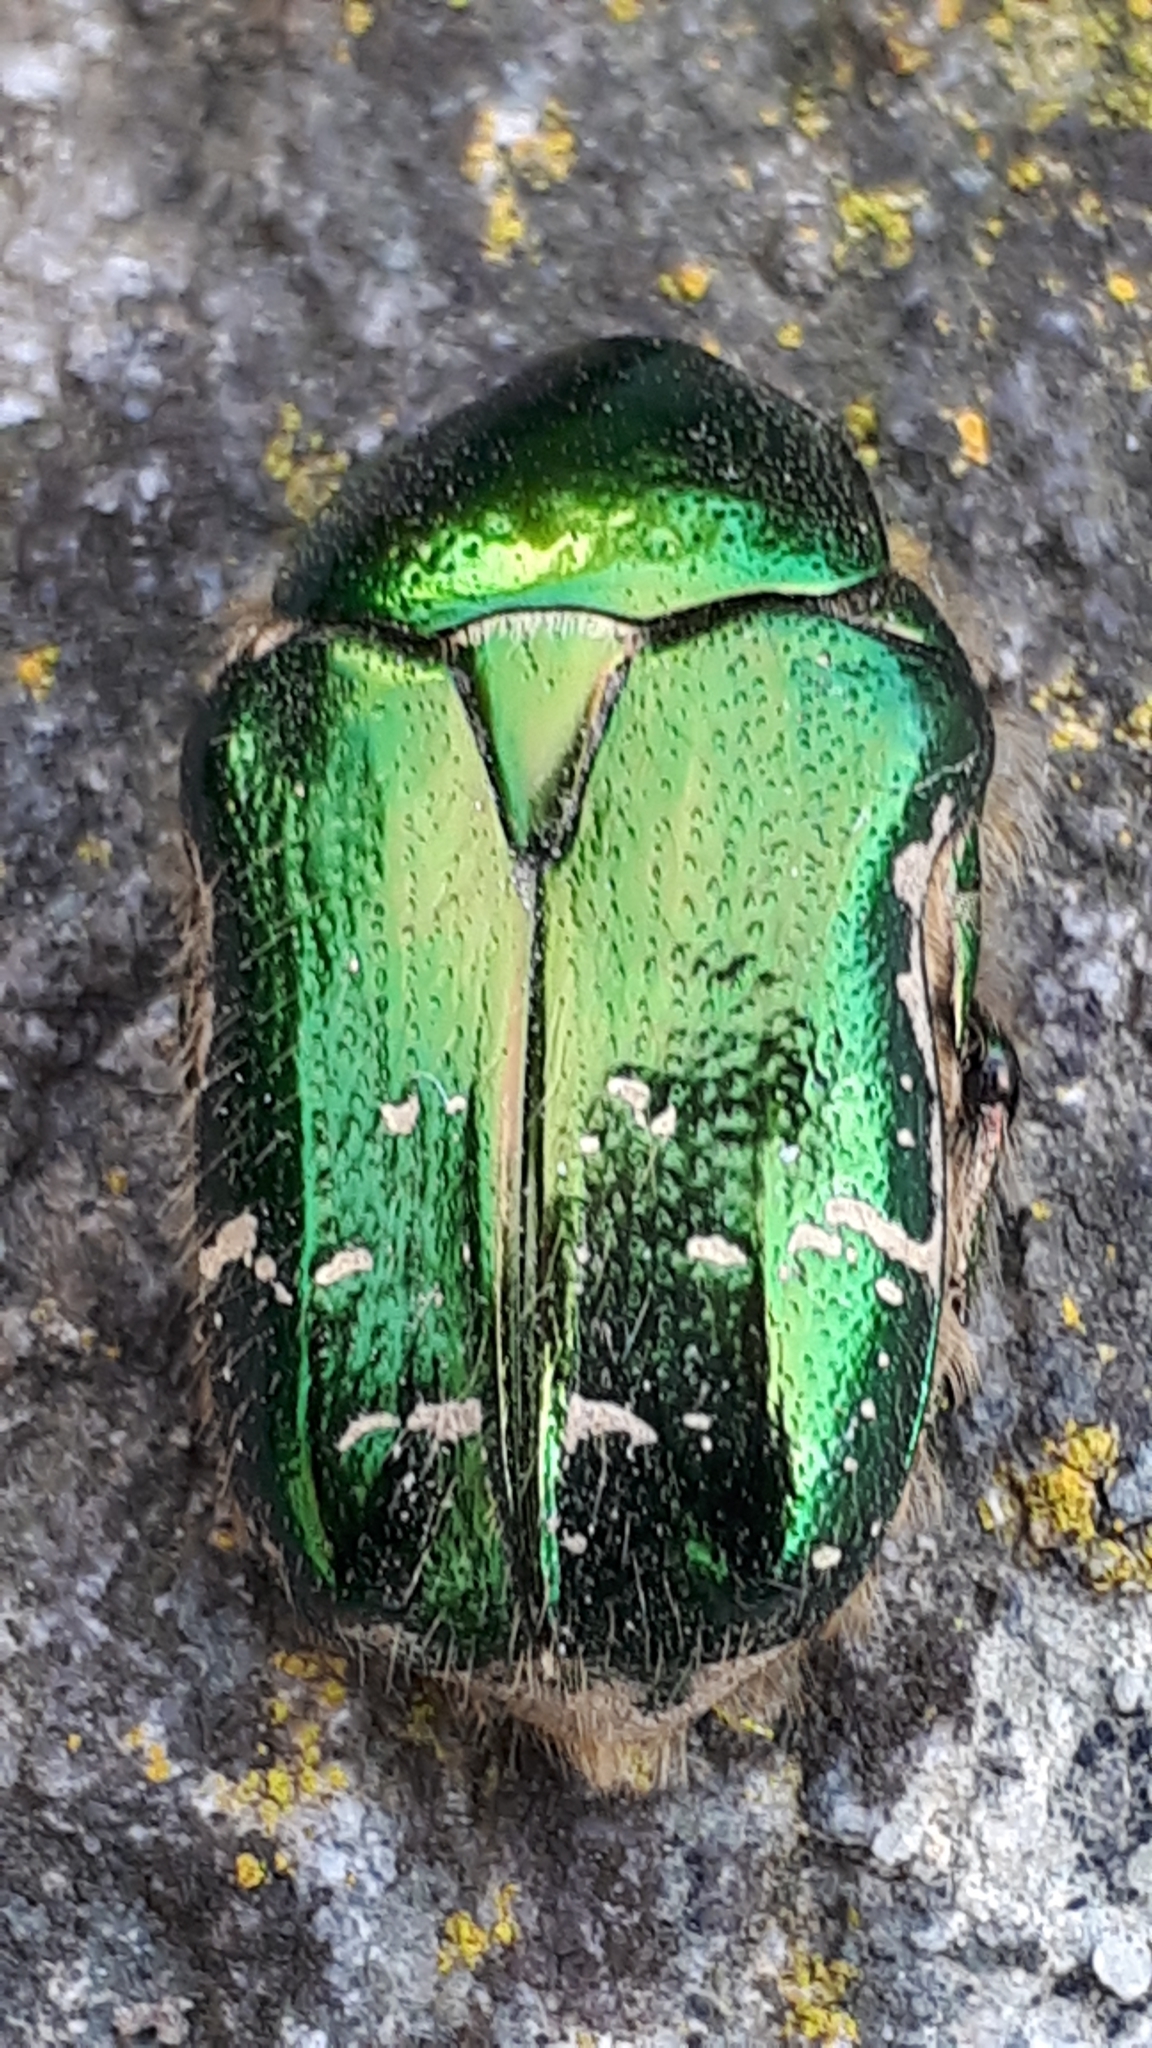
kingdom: Animalia
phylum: Arthropoda
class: Insecta
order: Coleoptera
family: Scarabaeidae
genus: Cetonia
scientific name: Cetonia aurata
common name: Rose chafer
